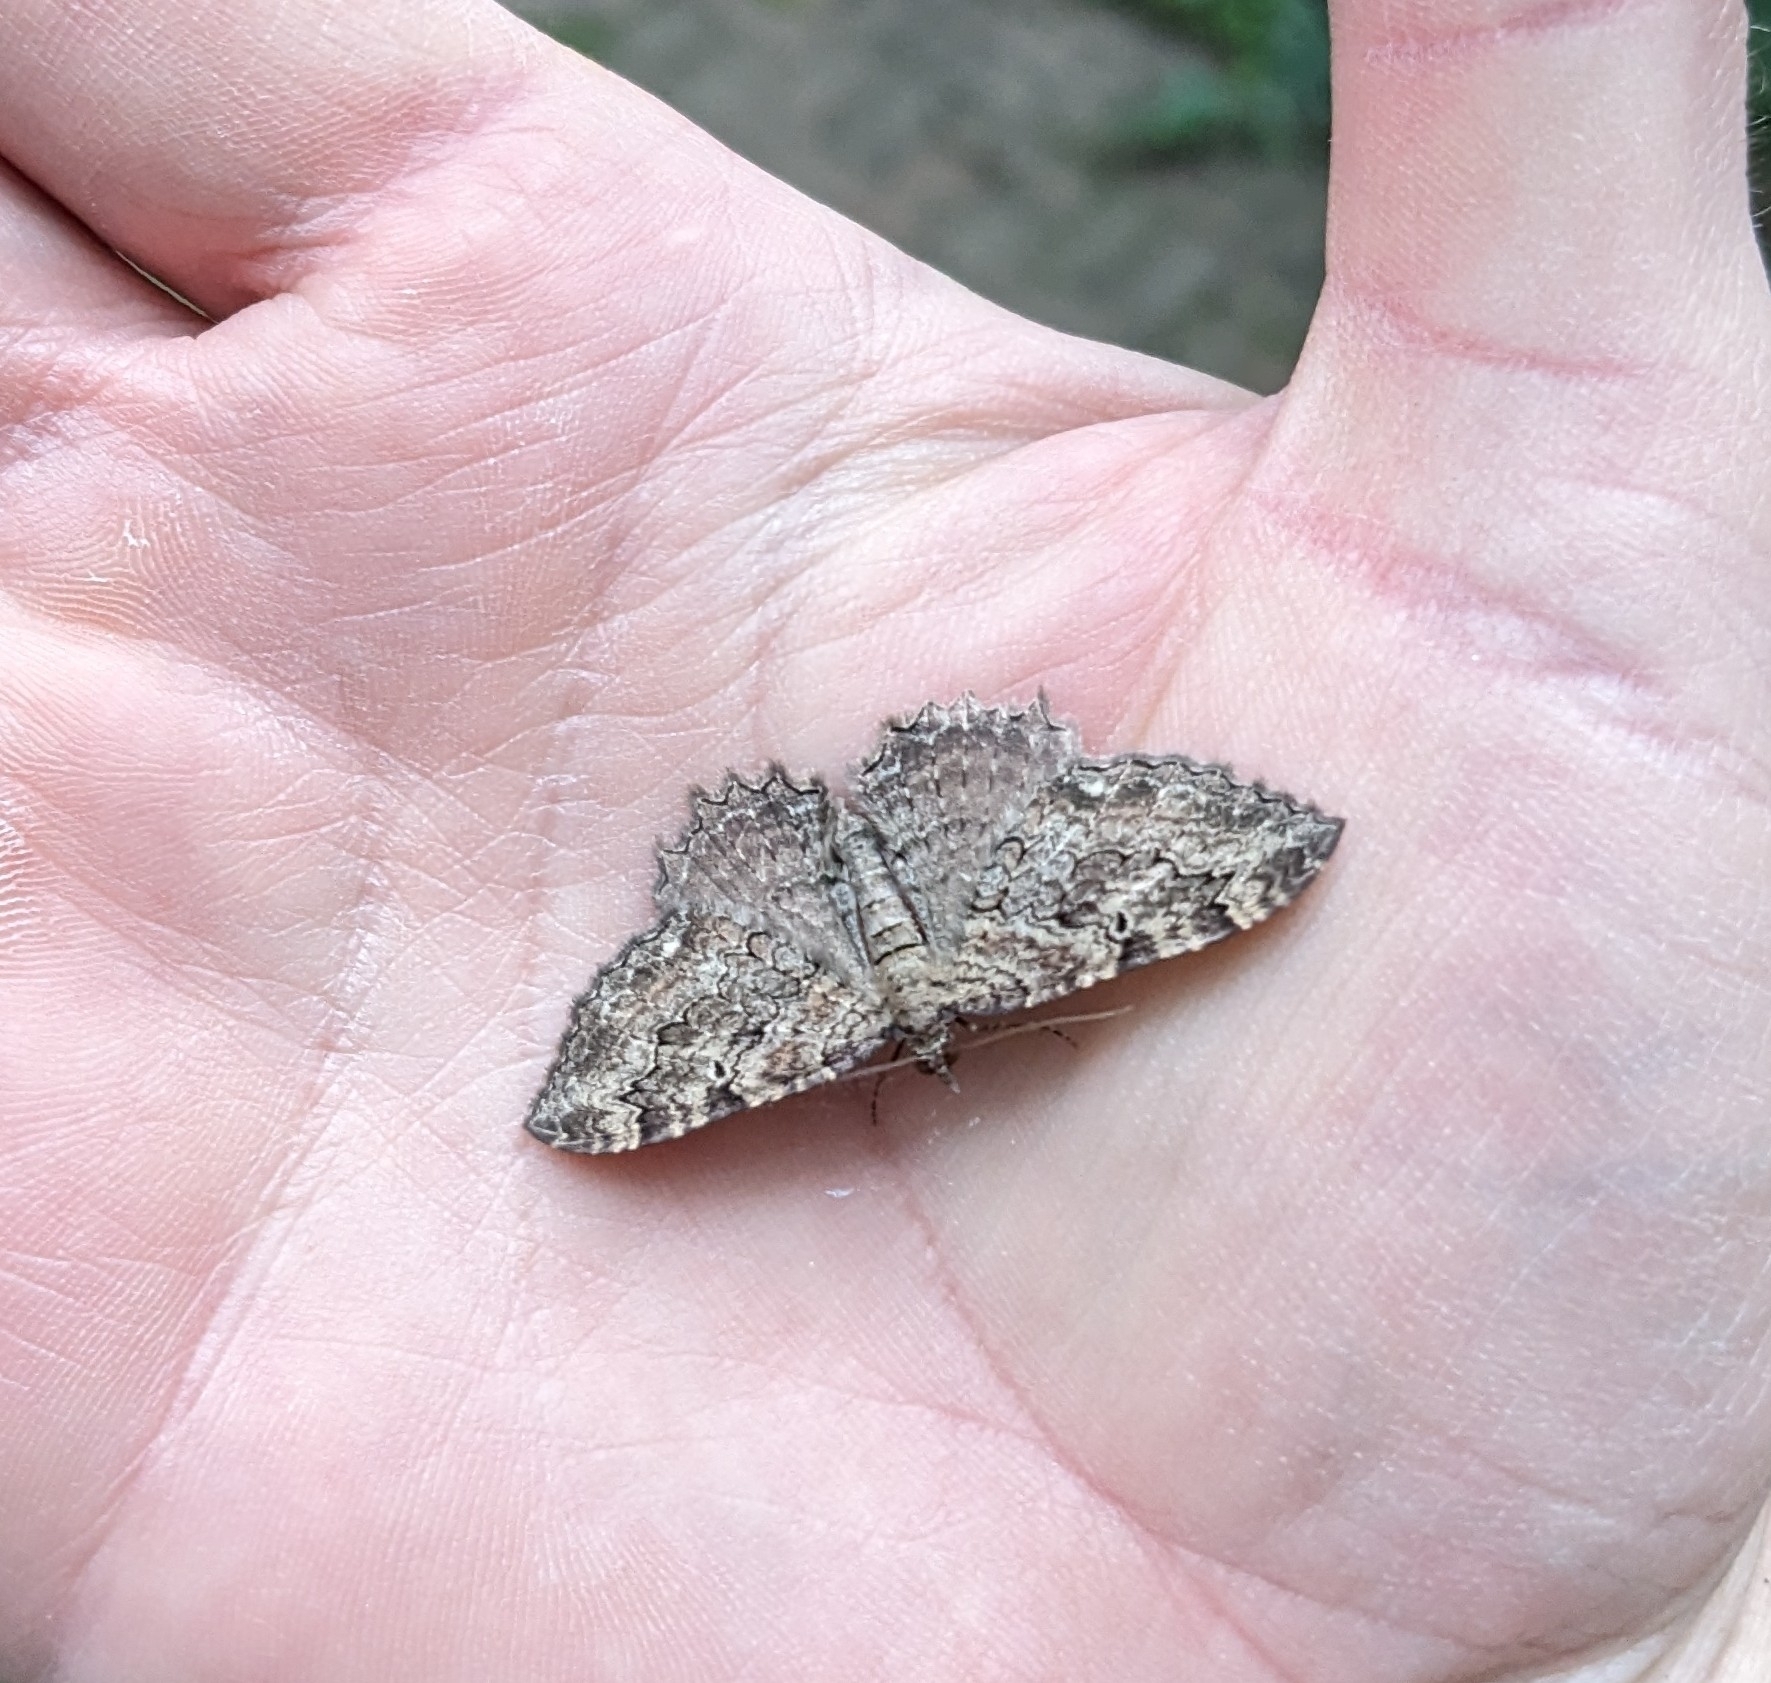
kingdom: Animalia
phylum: Arthropoda
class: Insecta
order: Lepidoptera
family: Geometridae
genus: Rheumaptera
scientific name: Rheumaptera
